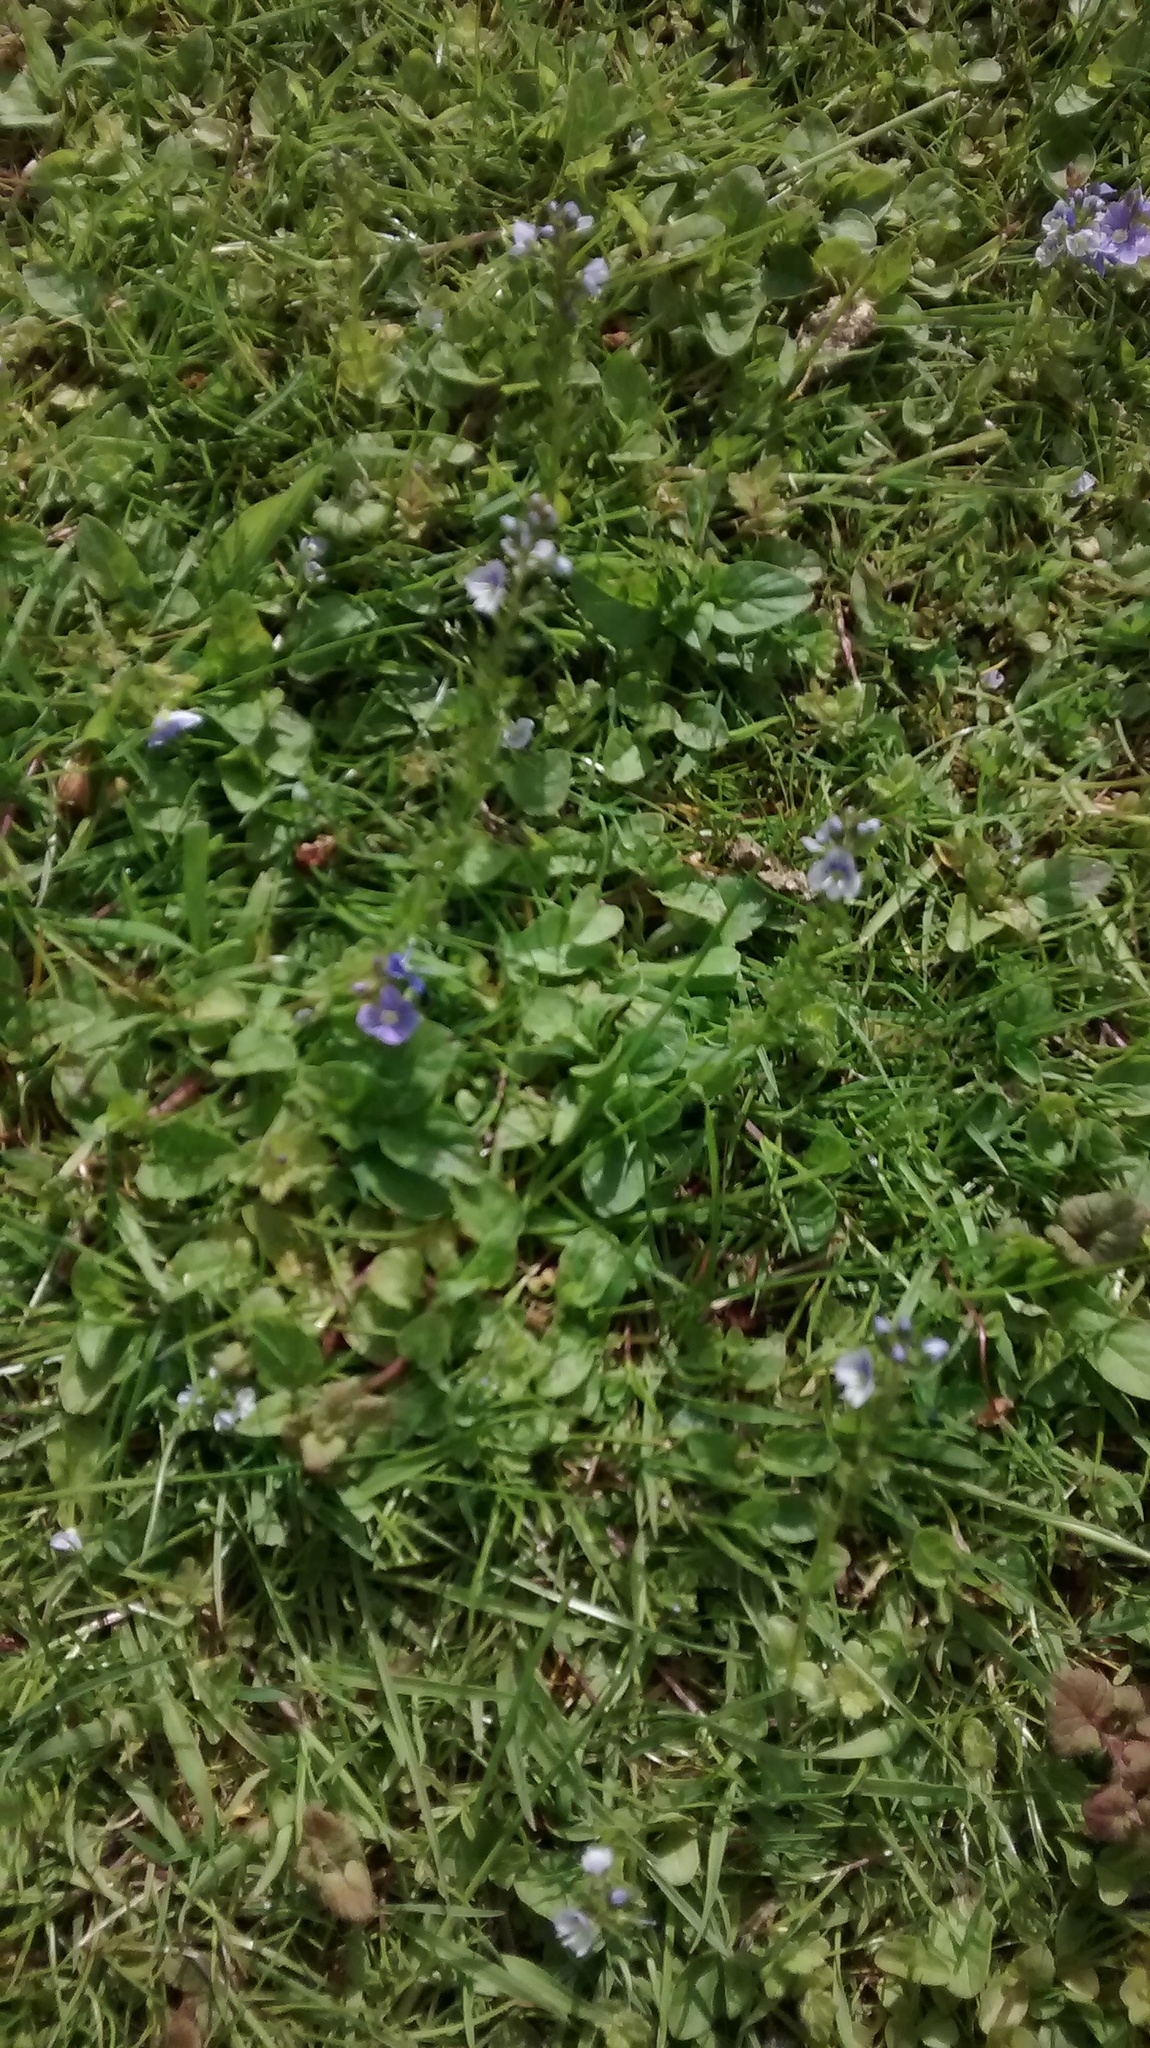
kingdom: Plantae
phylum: Tracheophyta
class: Magnoliopsida
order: Lamiales
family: Plantaginaceae
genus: Veronica
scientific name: Veronica serpyllifolia
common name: Thyme-leaved speedwell
